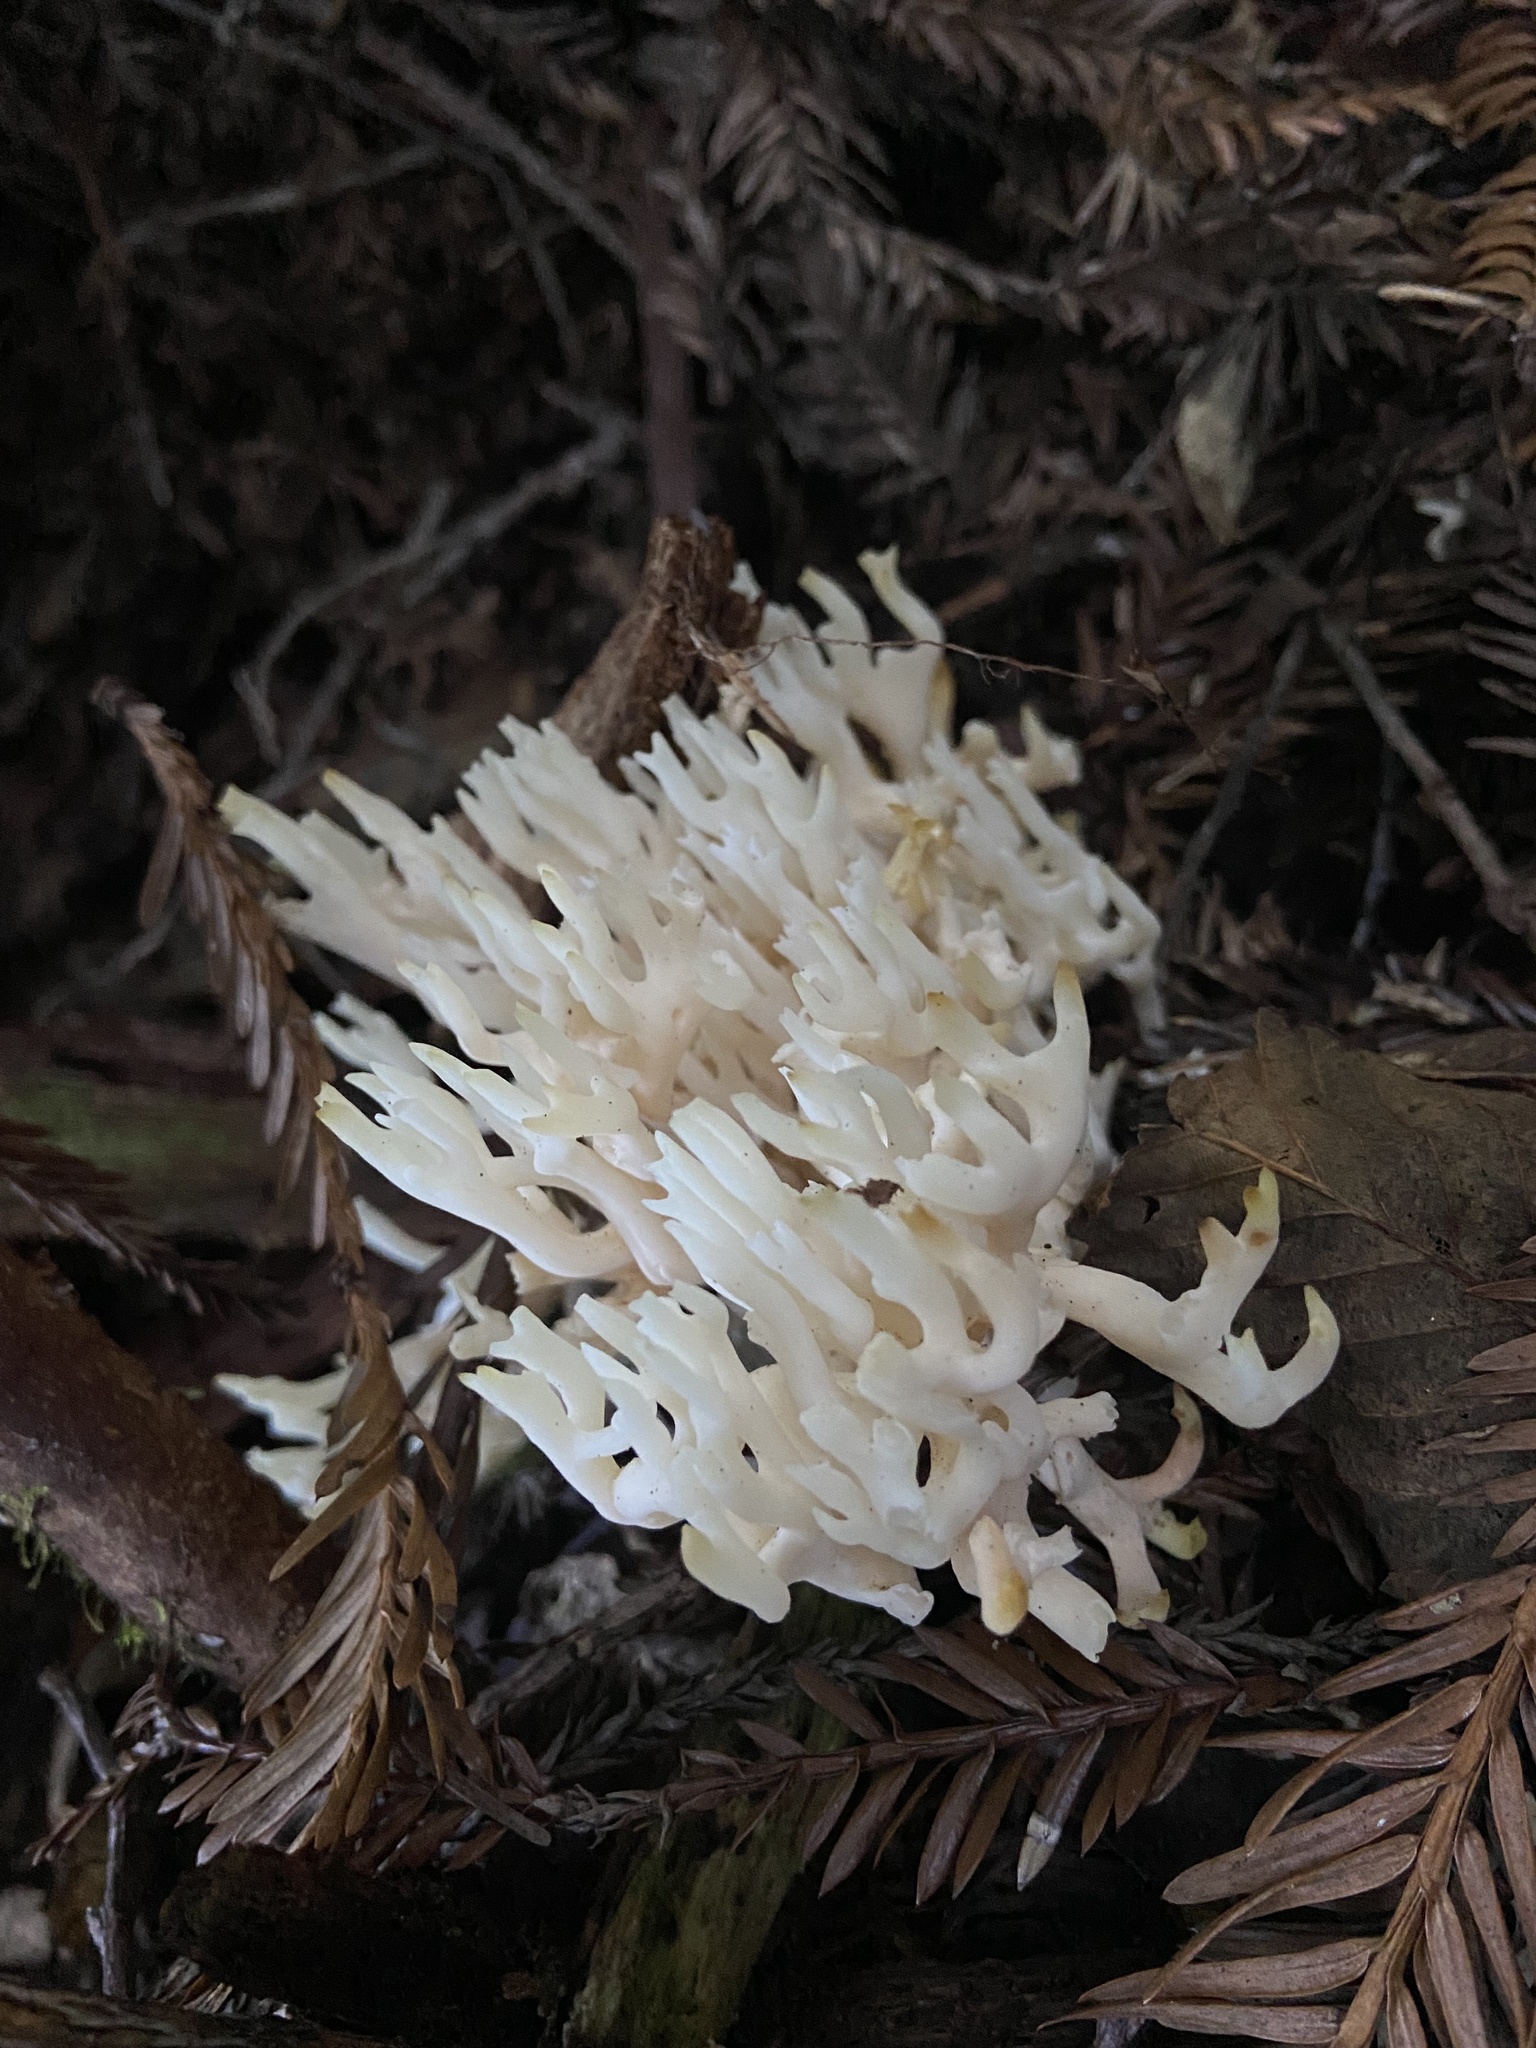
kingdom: Fungi
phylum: Basidiomycota
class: Agaricomycetes
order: Agaricales
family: Clavariaceae
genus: Ramariopsis
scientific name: Ramariopsis kunzei
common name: Ivory coral
